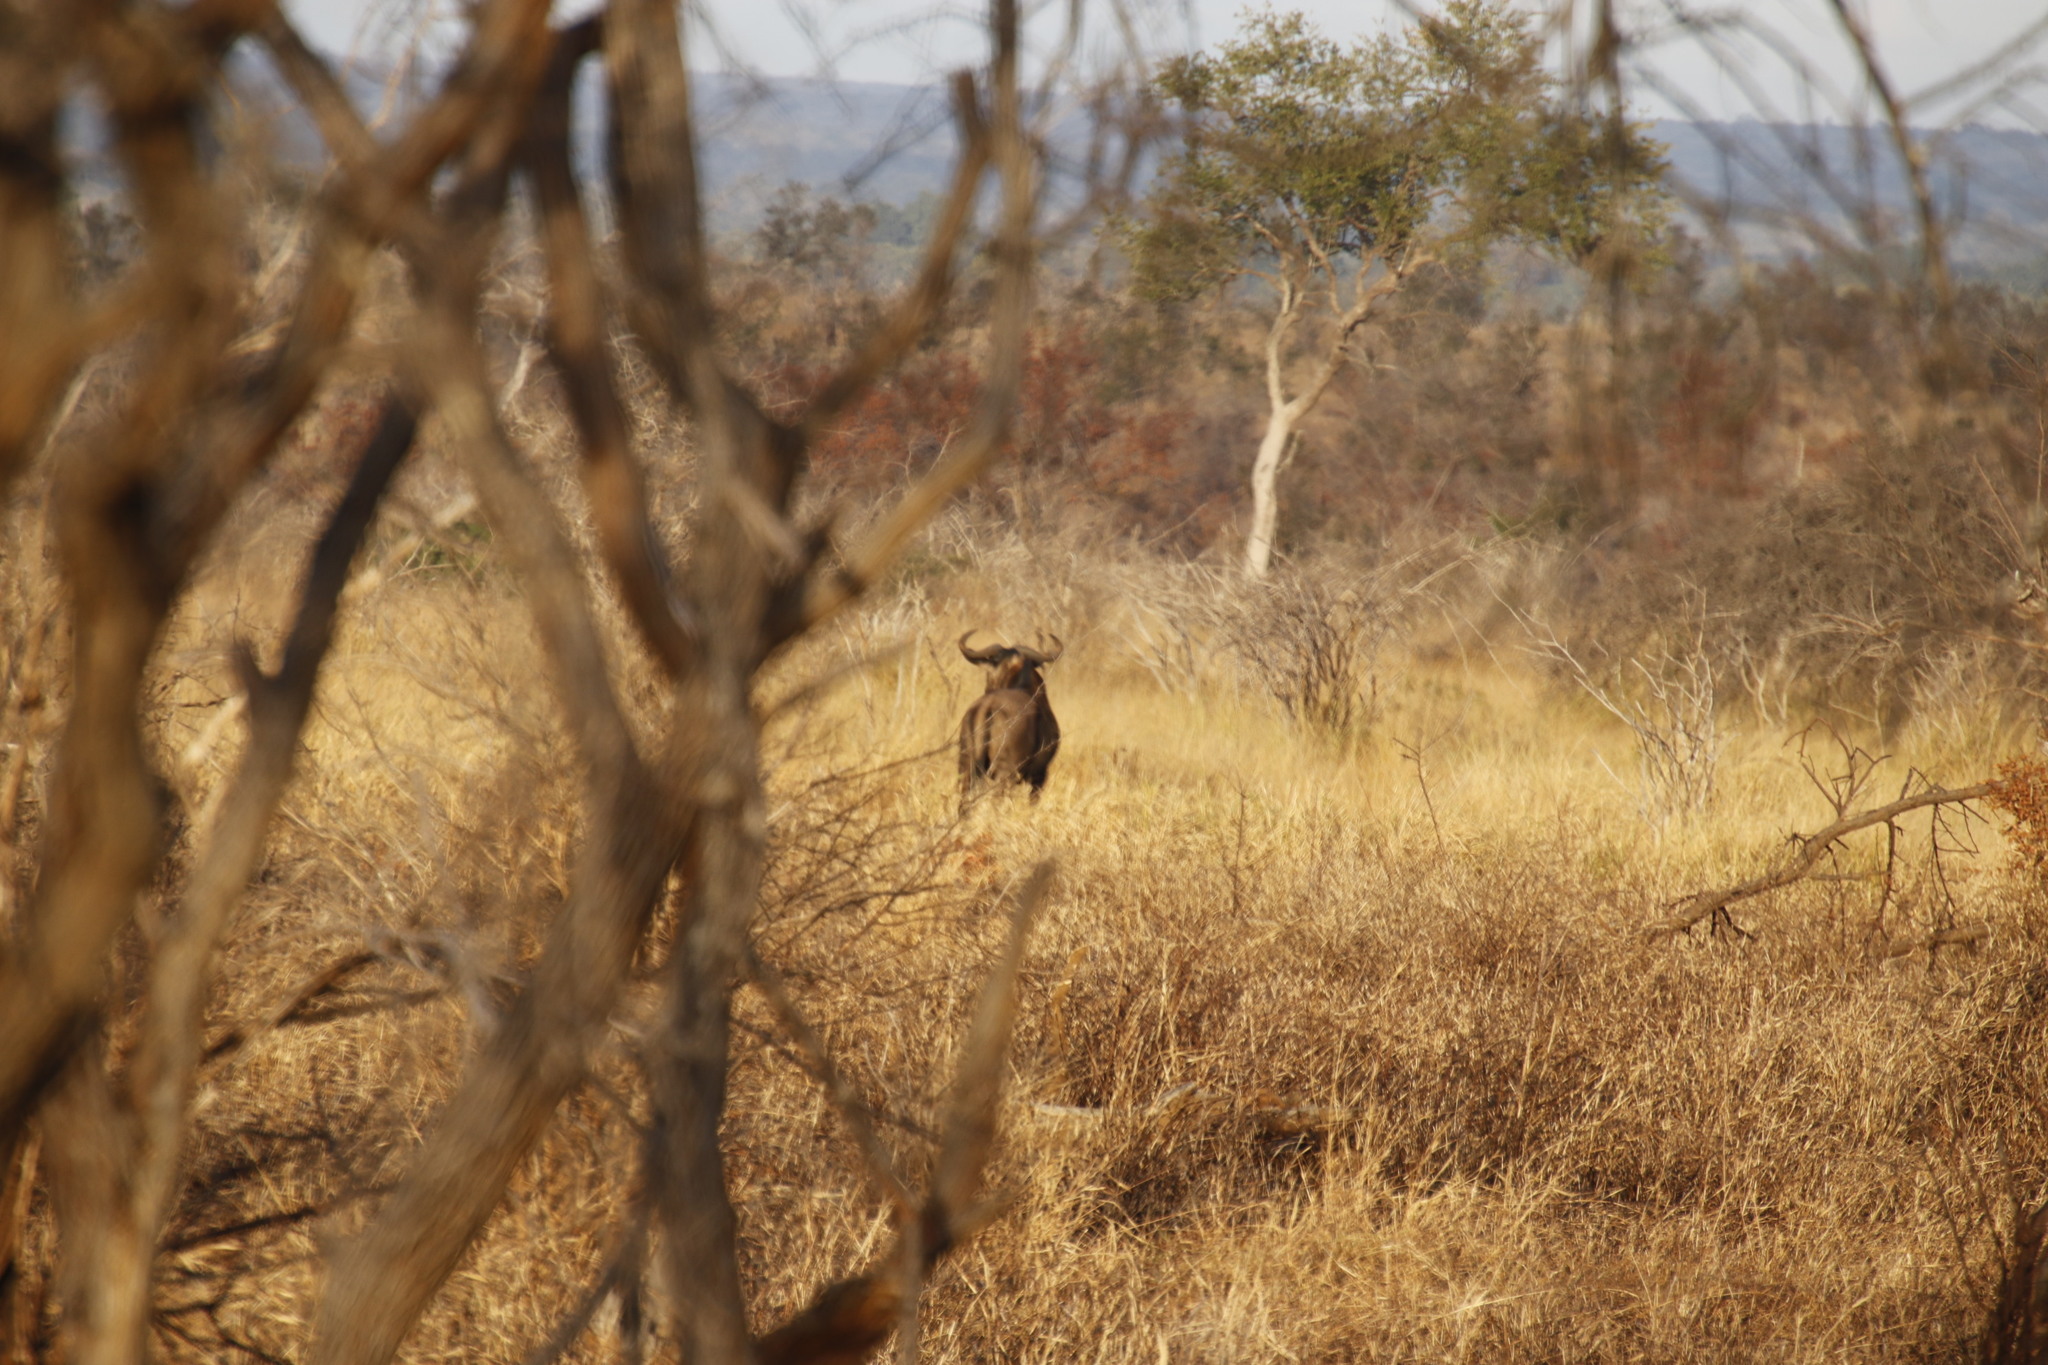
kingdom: Animalia
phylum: Chordata
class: Mammalia
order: Artiodactyla
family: Bovidae
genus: Connochaetes
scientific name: Connochaetes taurinus
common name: Blue wildebeest
